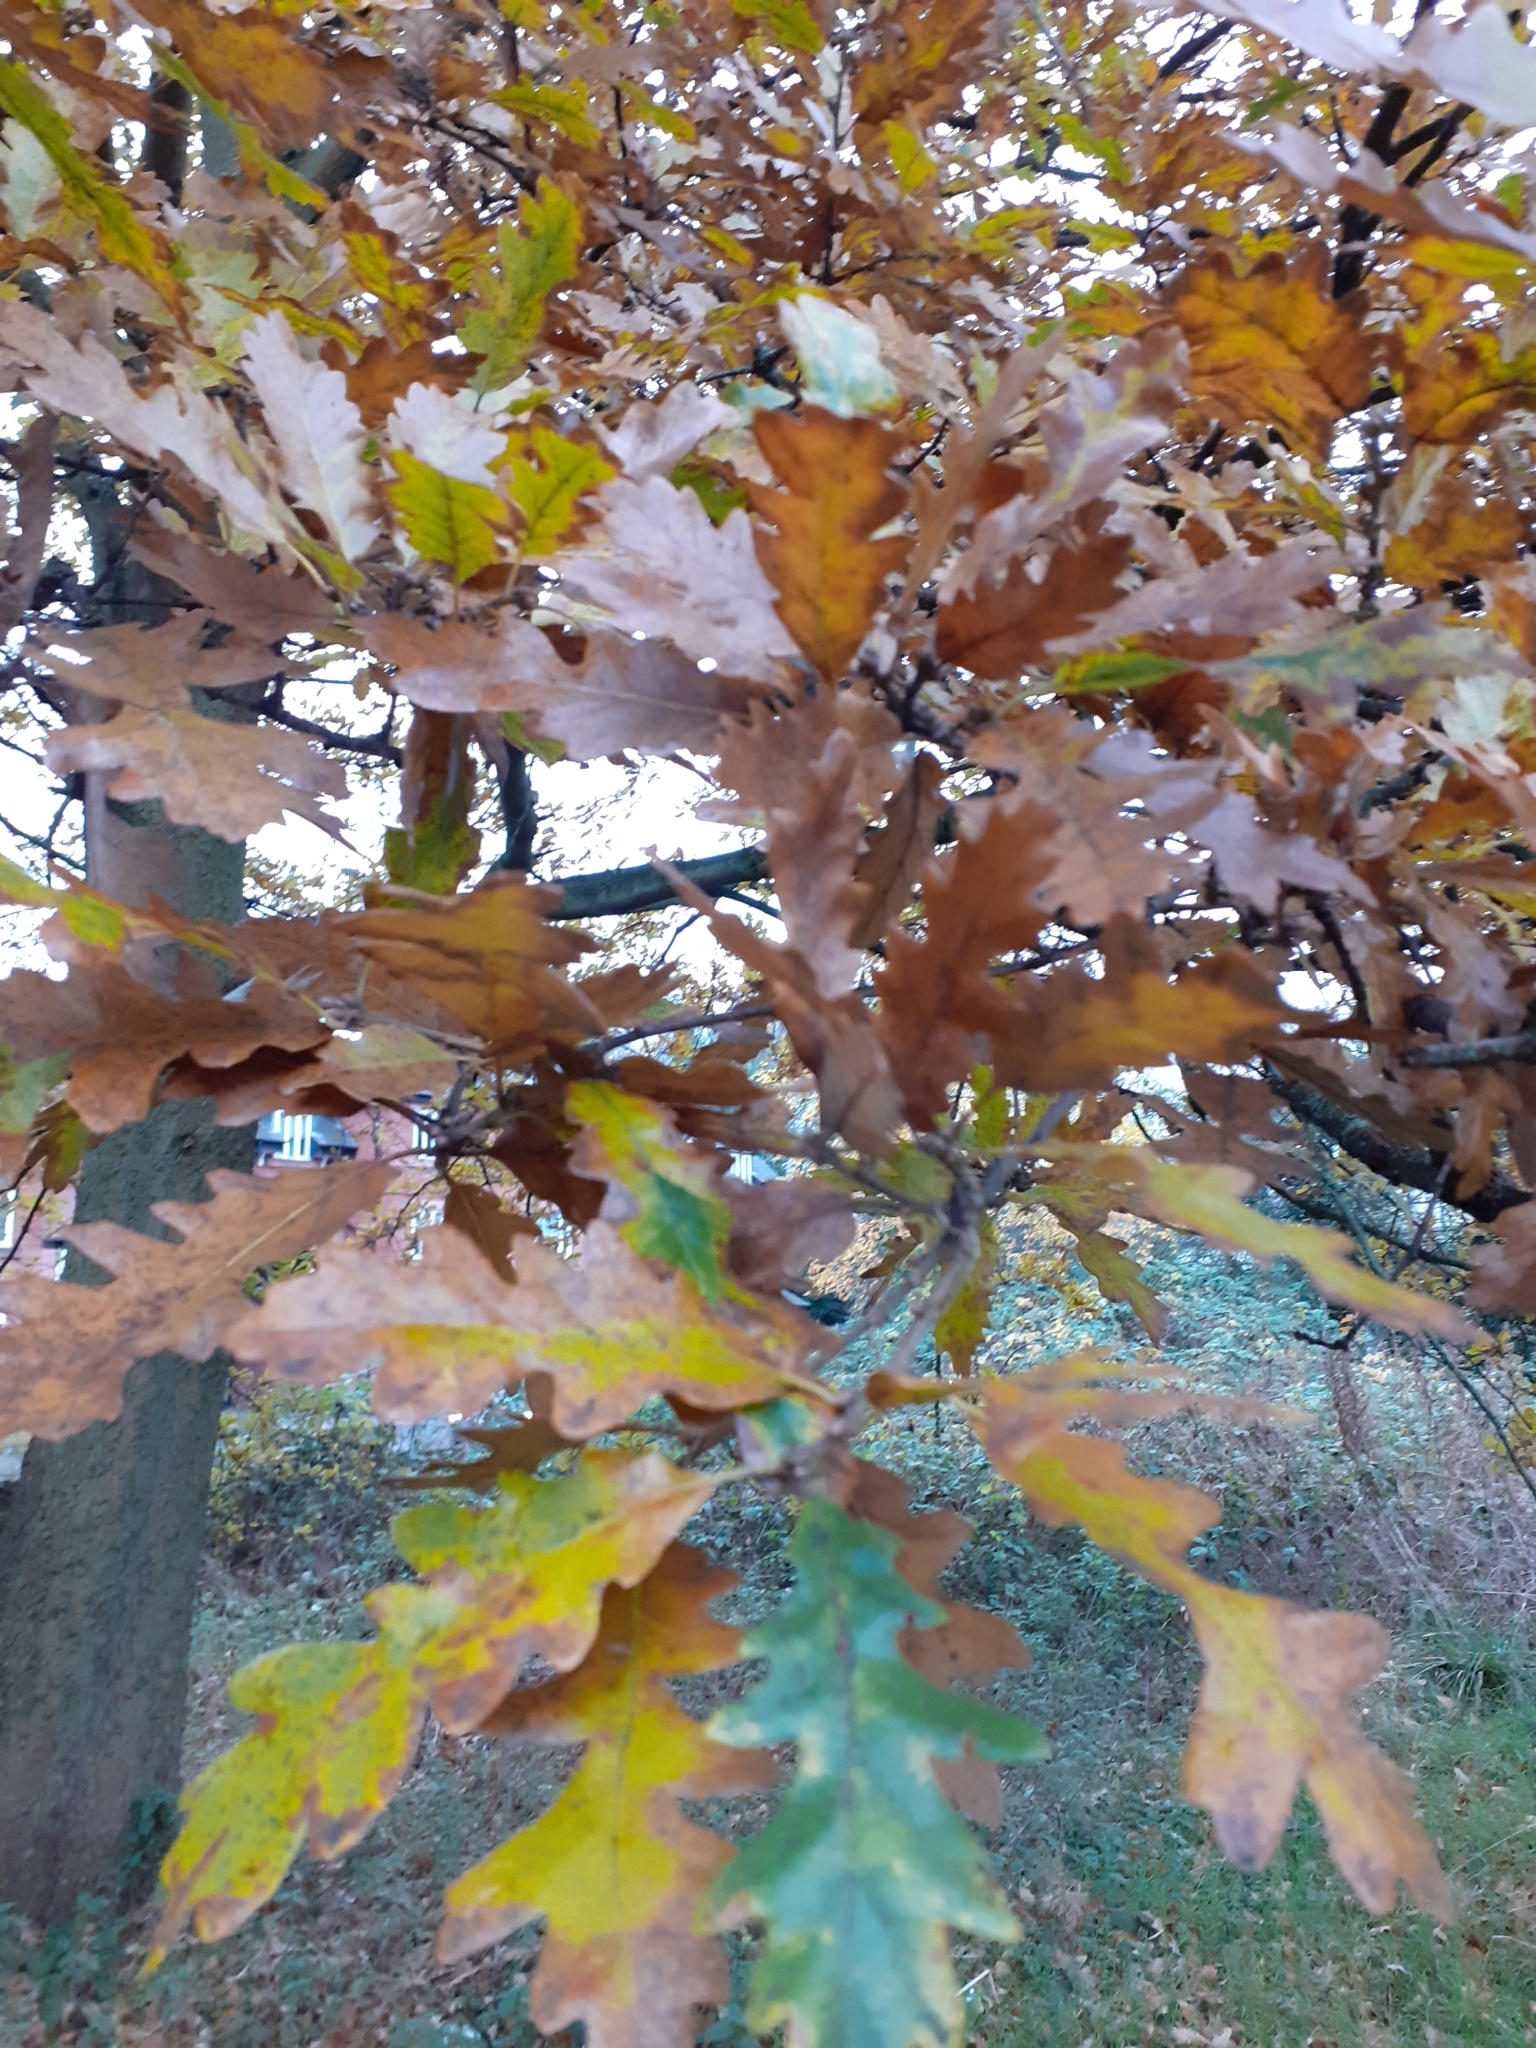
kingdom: Plantae
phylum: Tracheophyta
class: Magnoliopsida
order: Fagales
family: Fagaceae
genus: Quercus
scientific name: Quercus cerris
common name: Turkey oak
